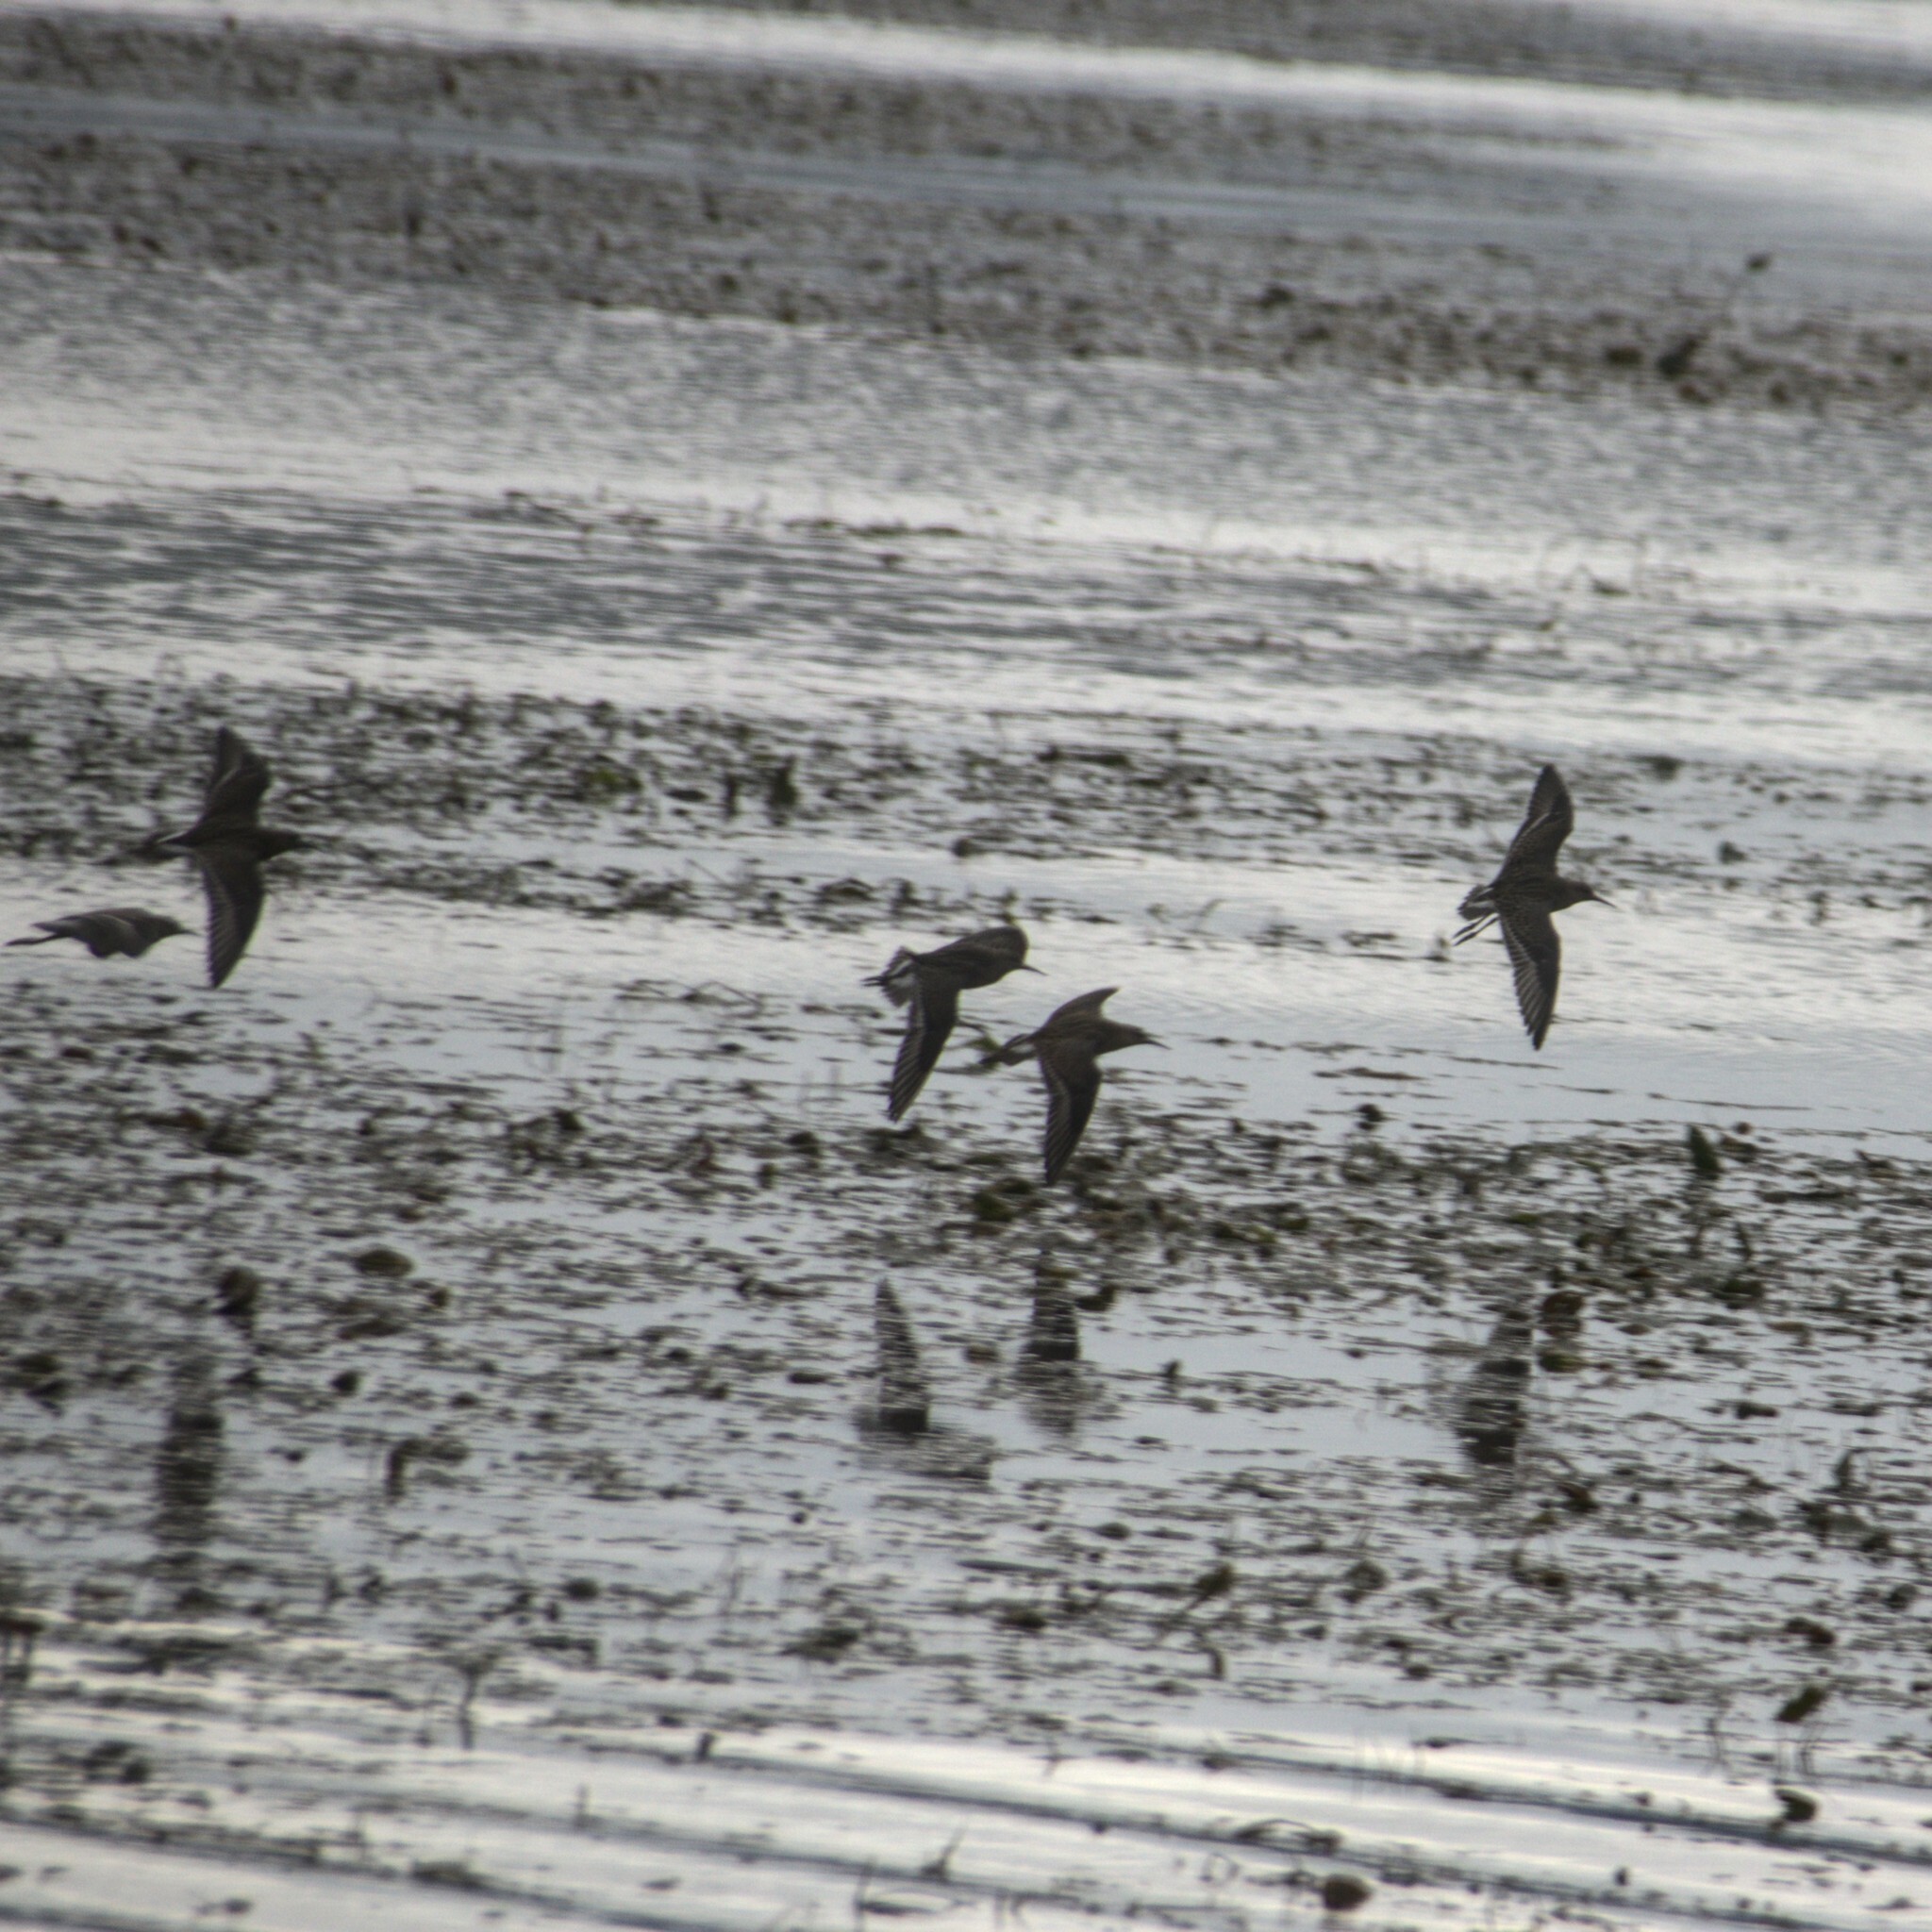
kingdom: Animalia
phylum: Chordata
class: Aves
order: Charadriiformes
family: Scolopacidae
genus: Calidris
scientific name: Calidris pugnax
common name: Ruff
